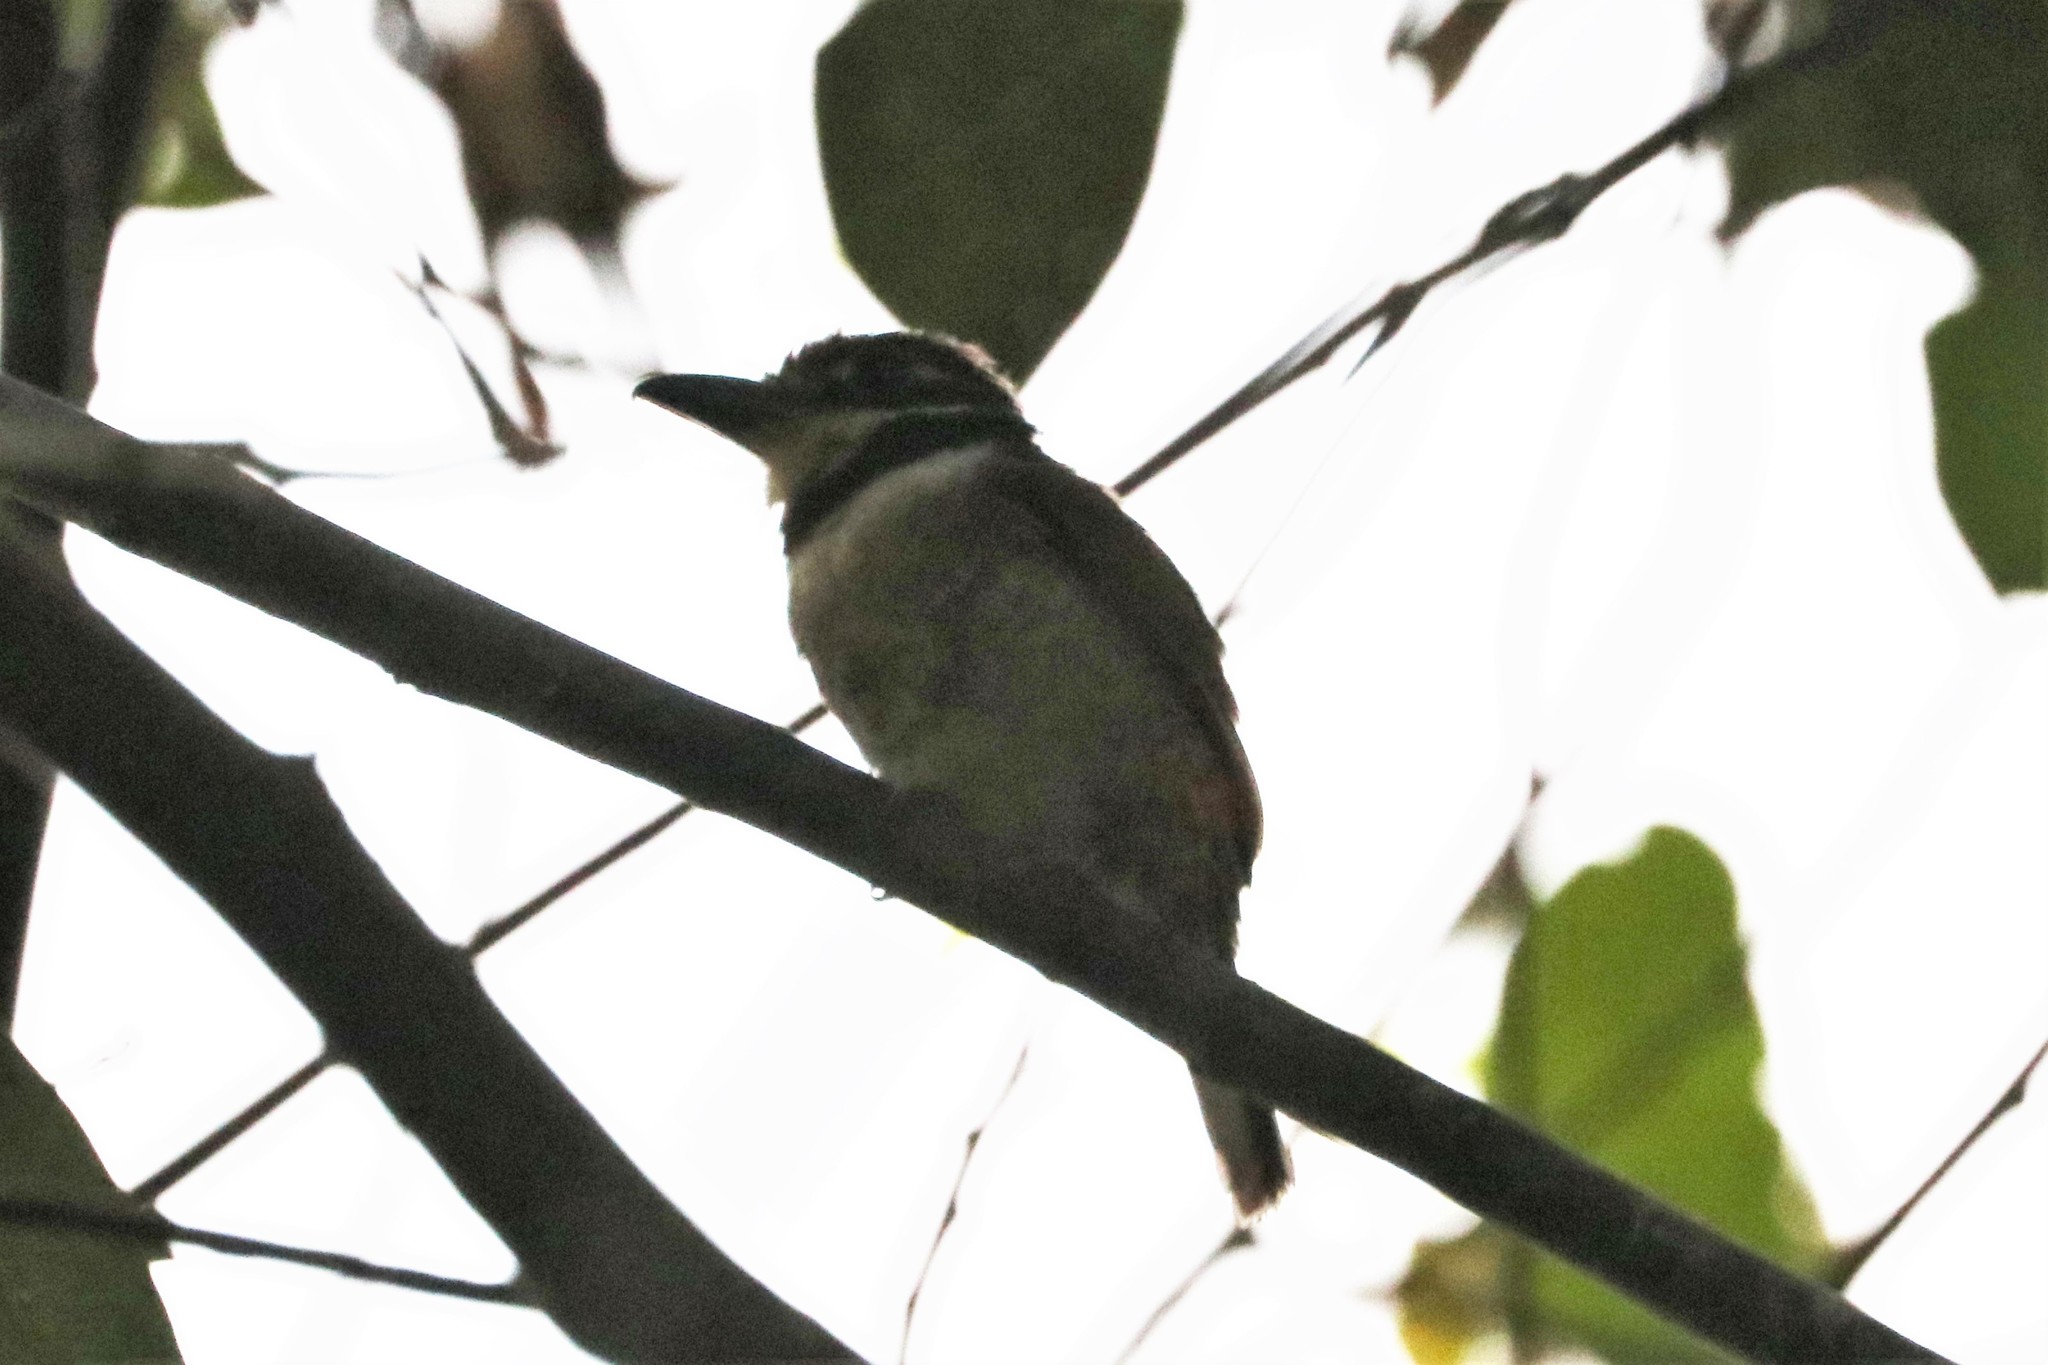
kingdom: Animalia
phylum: Chordata
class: Aves
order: Piciformes
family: Bucconidae
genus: Bucco
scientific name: Bucco macrodactylus
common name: Chestnut-capped puffbird
